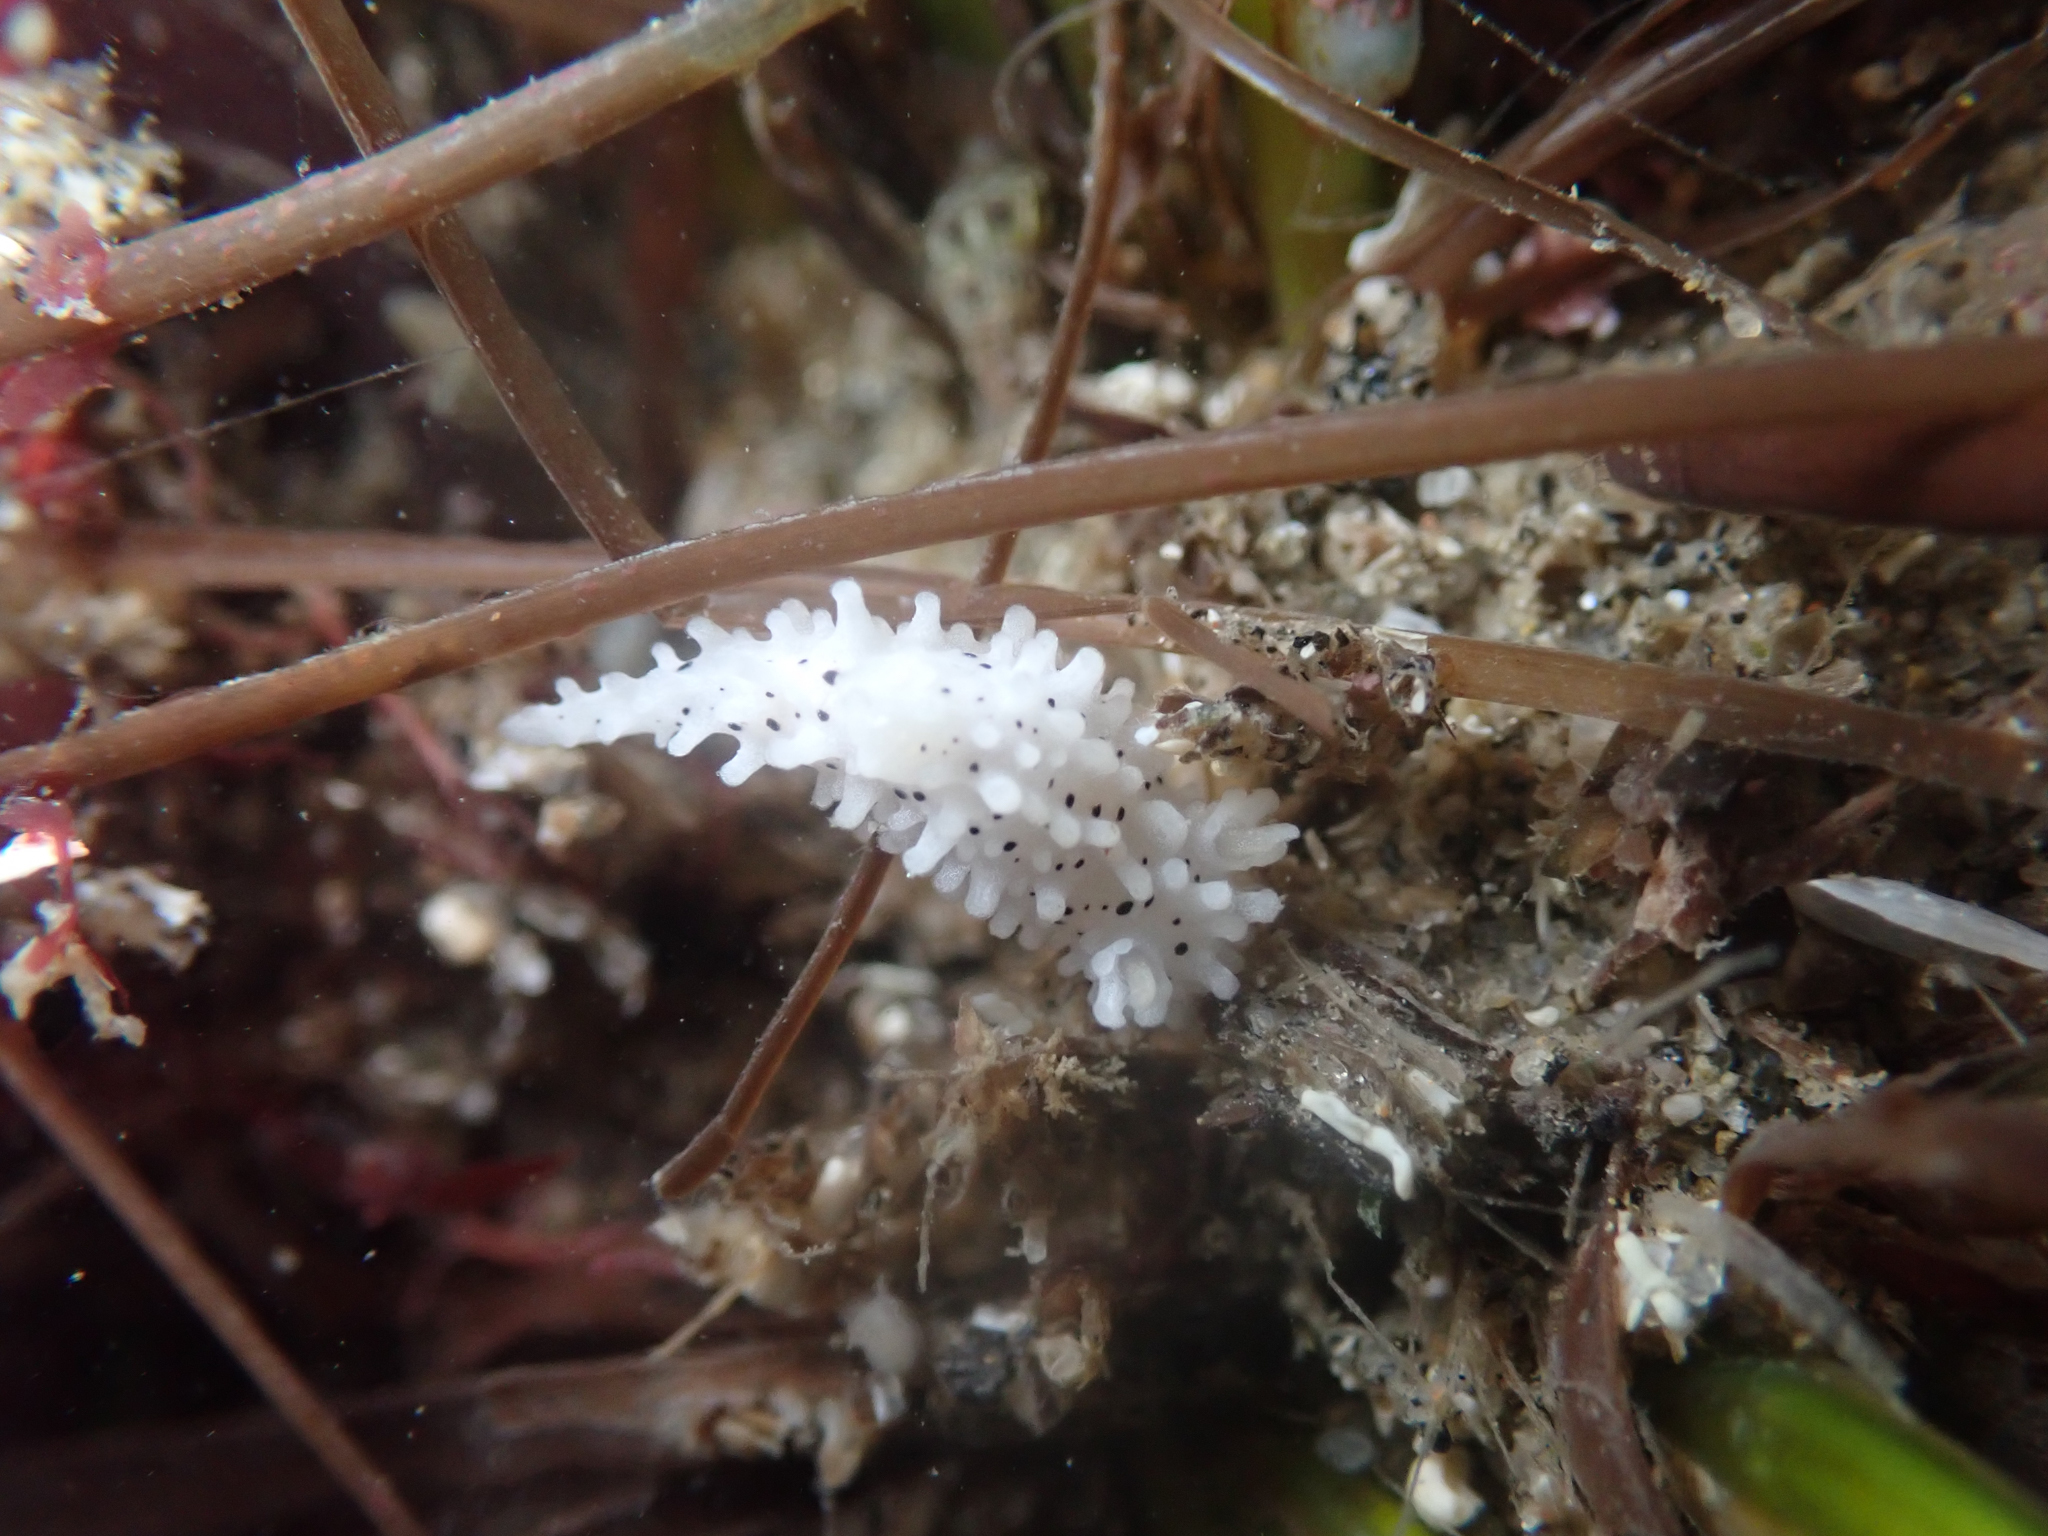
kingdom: Animalia
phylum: Mollusca
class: Gastropoda
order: Nudibranchia
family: Aegiridae
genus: Aegires
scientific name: Aegires albopunctatus
